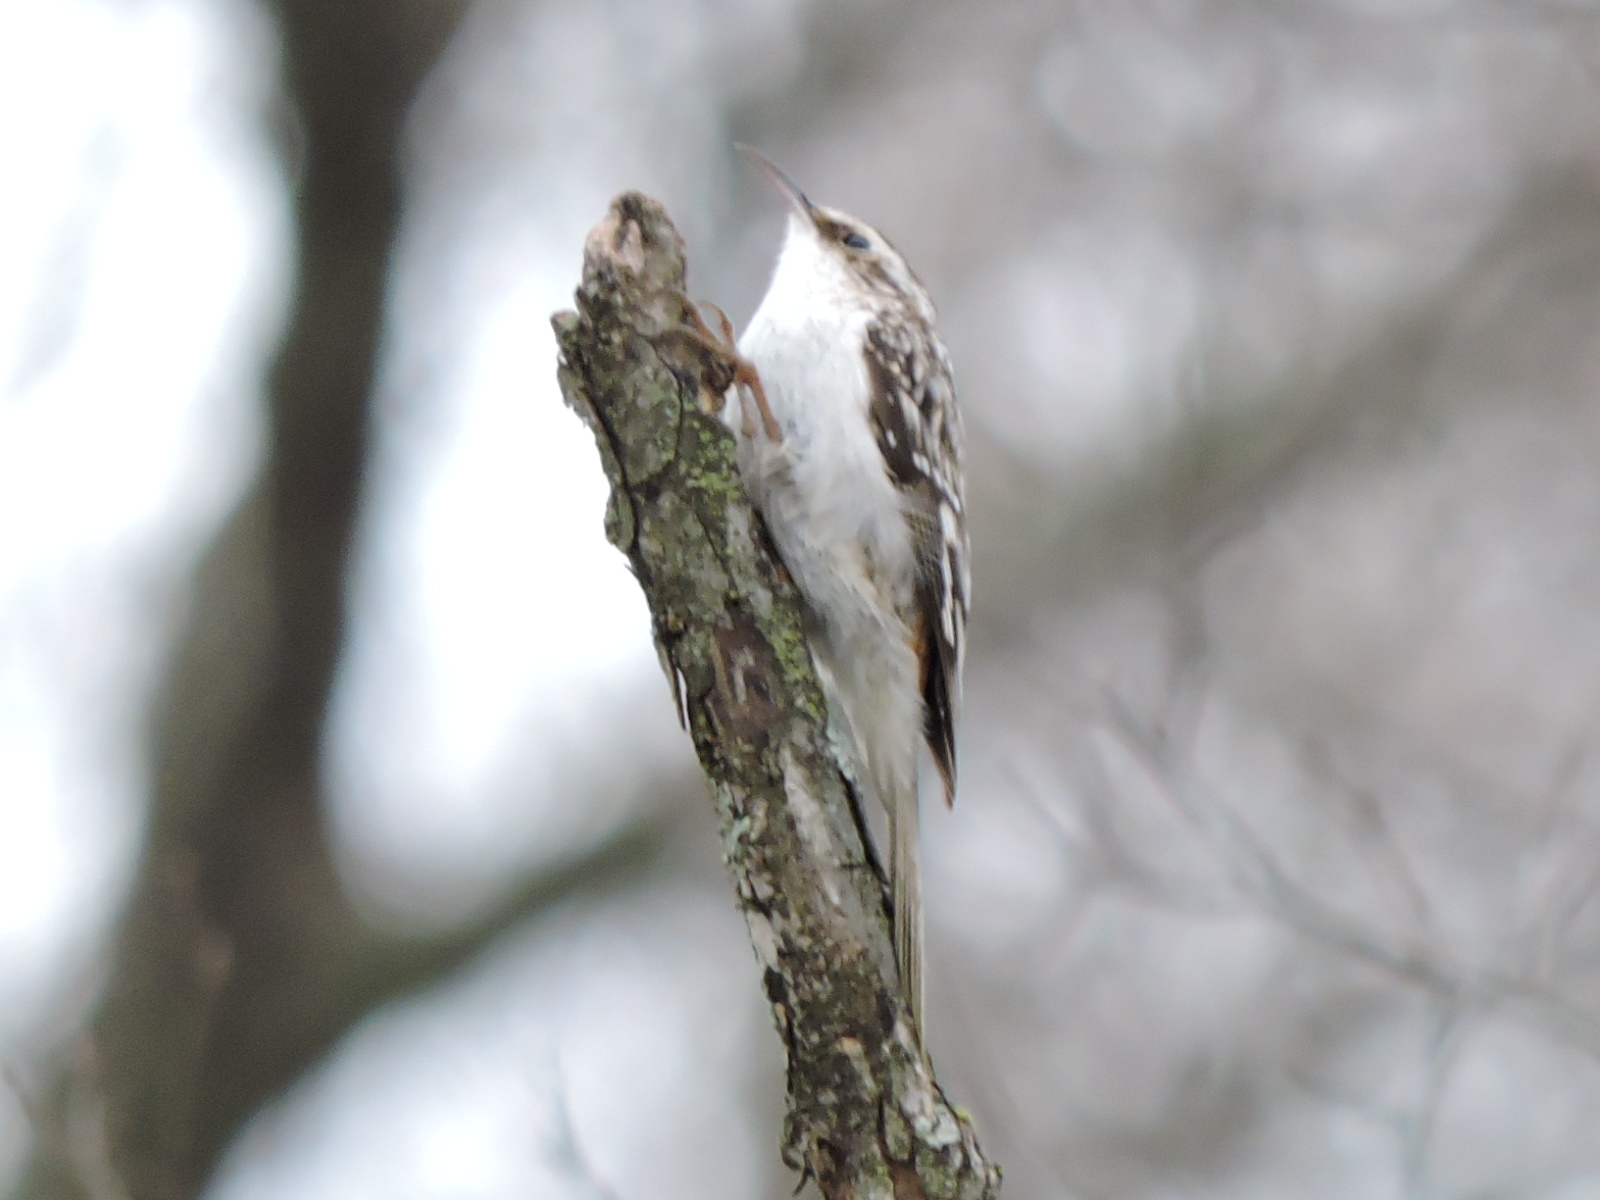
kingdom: Animalia
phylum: Chordata
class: Aves
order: Passeriformes
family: Certhiidae
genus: Certhia
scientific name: Certhia americana
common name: Brown creeper
